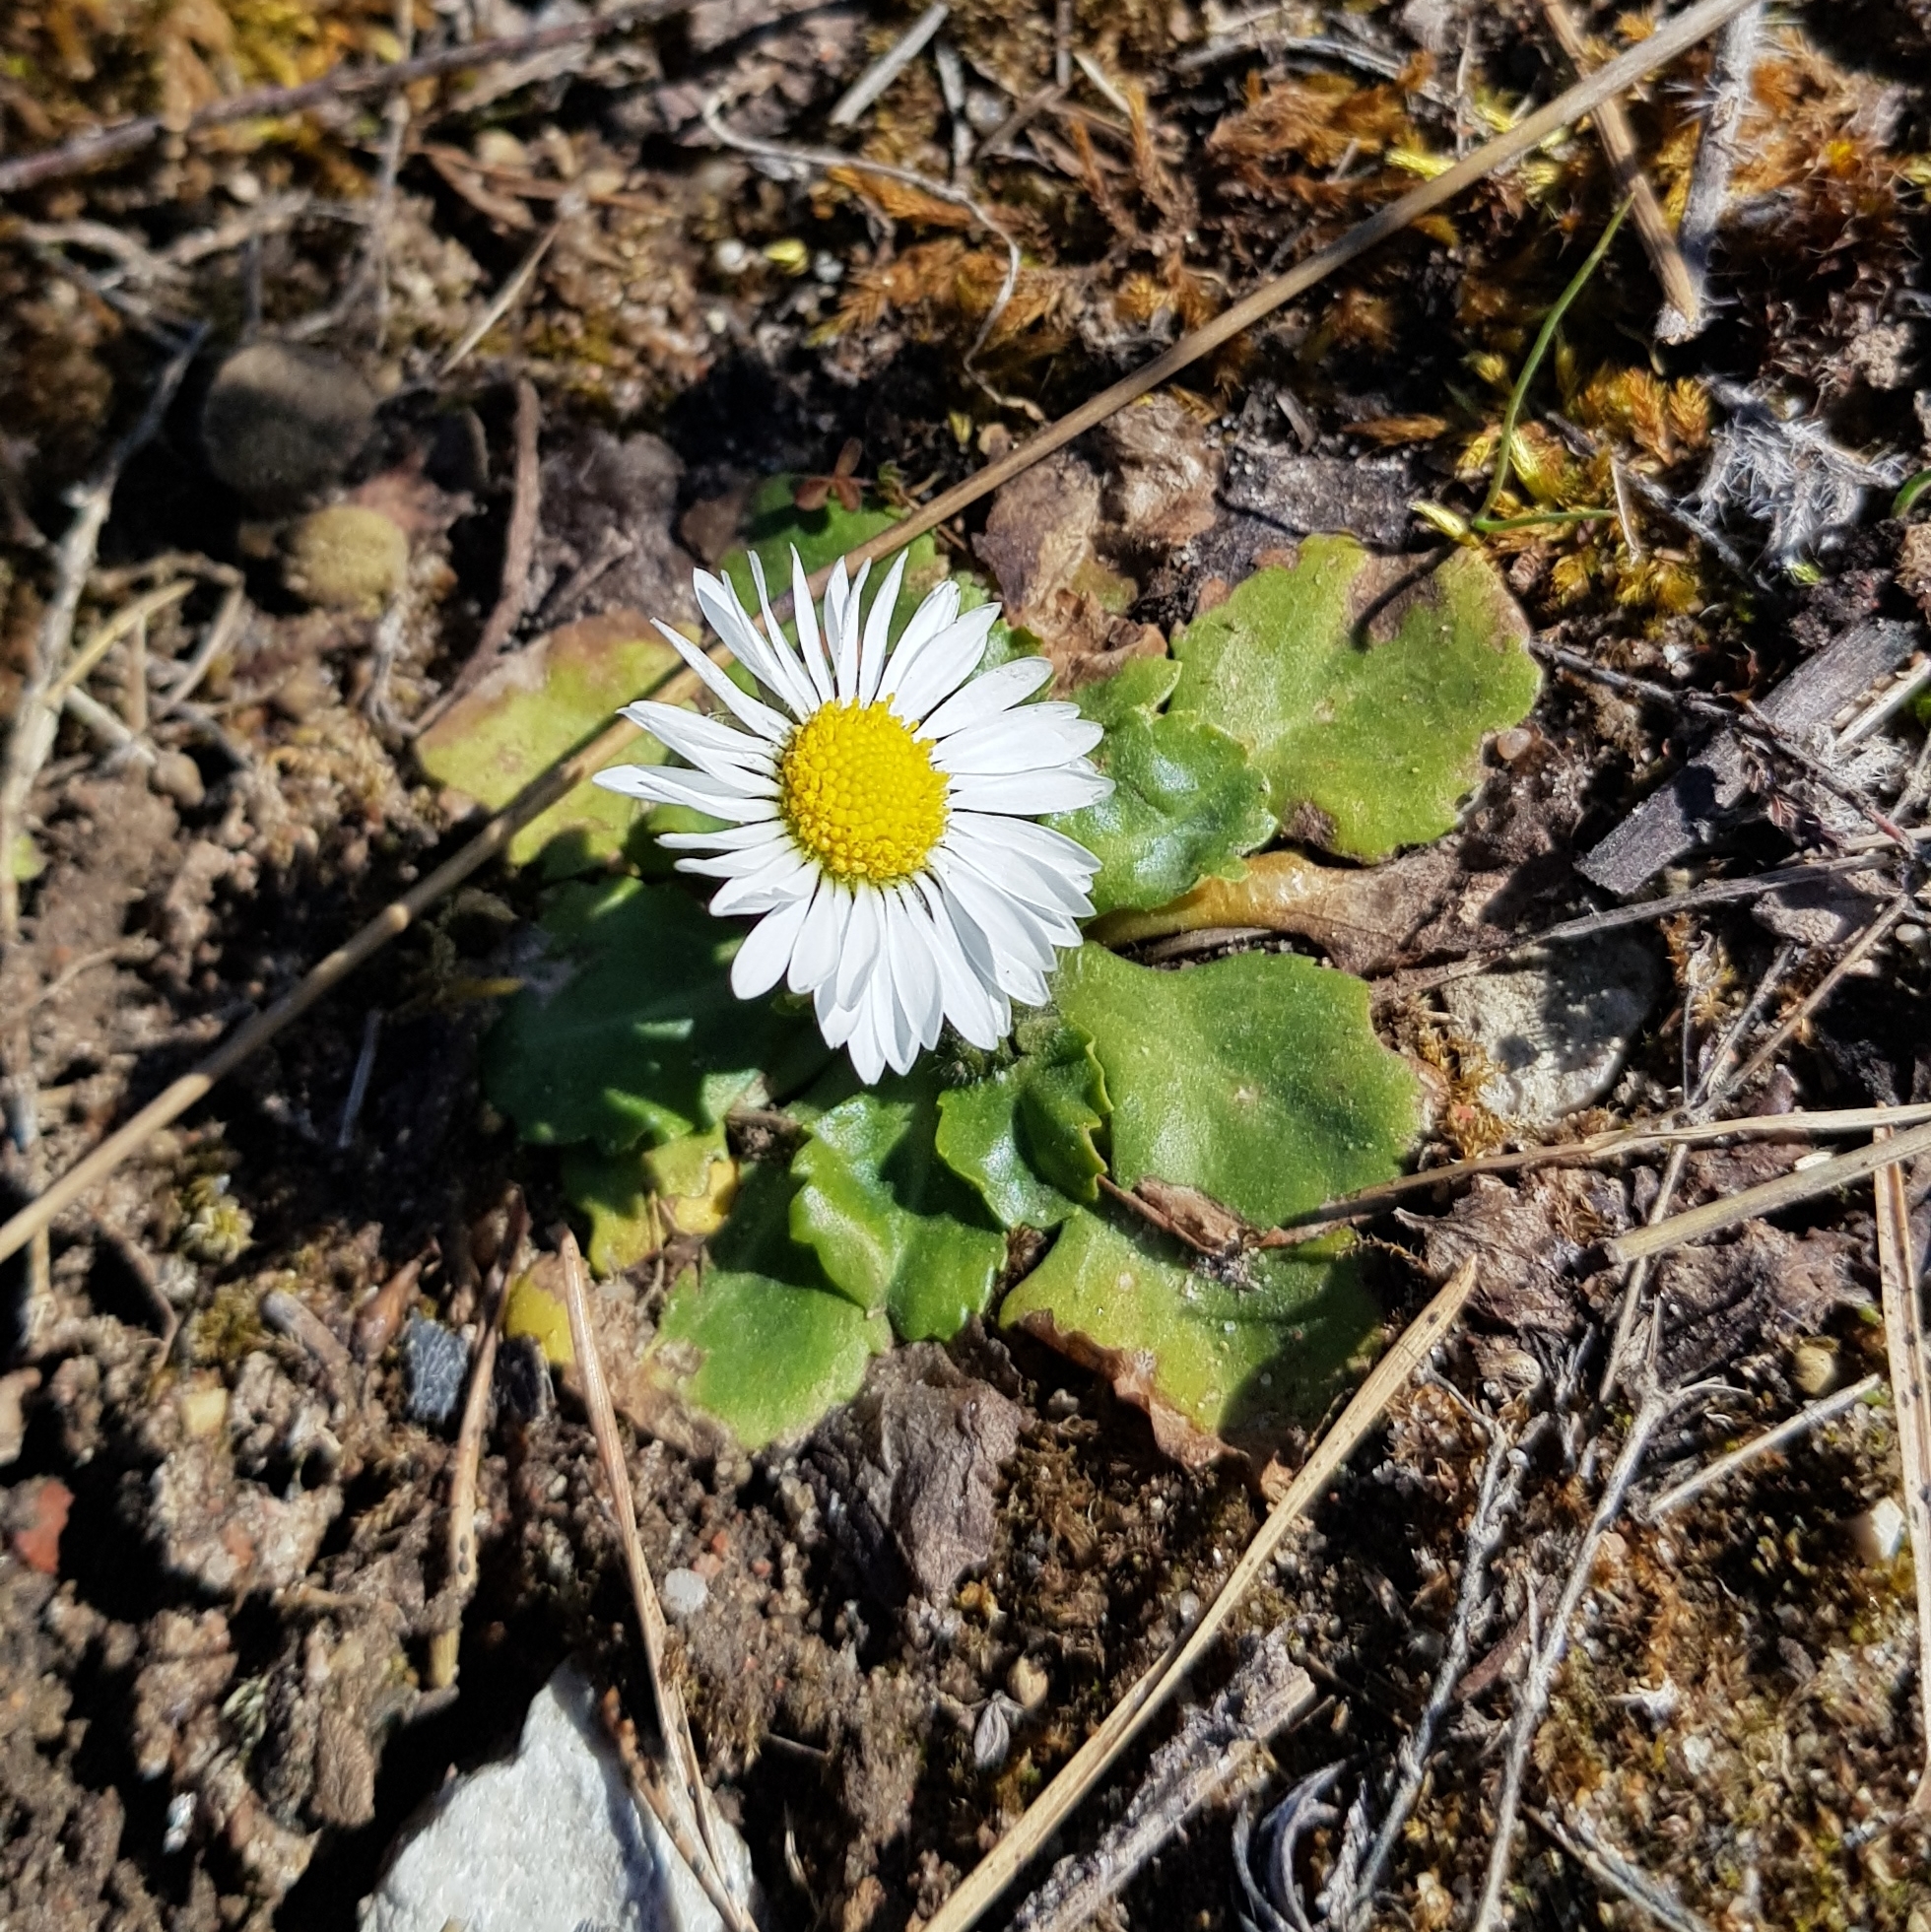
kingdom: Plantae
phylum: Tracheophyta
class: Magnoliopsida
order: Asterales
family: Asteraceae
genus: Bellis
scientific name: Bellis perennis
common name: Lawndaisy
